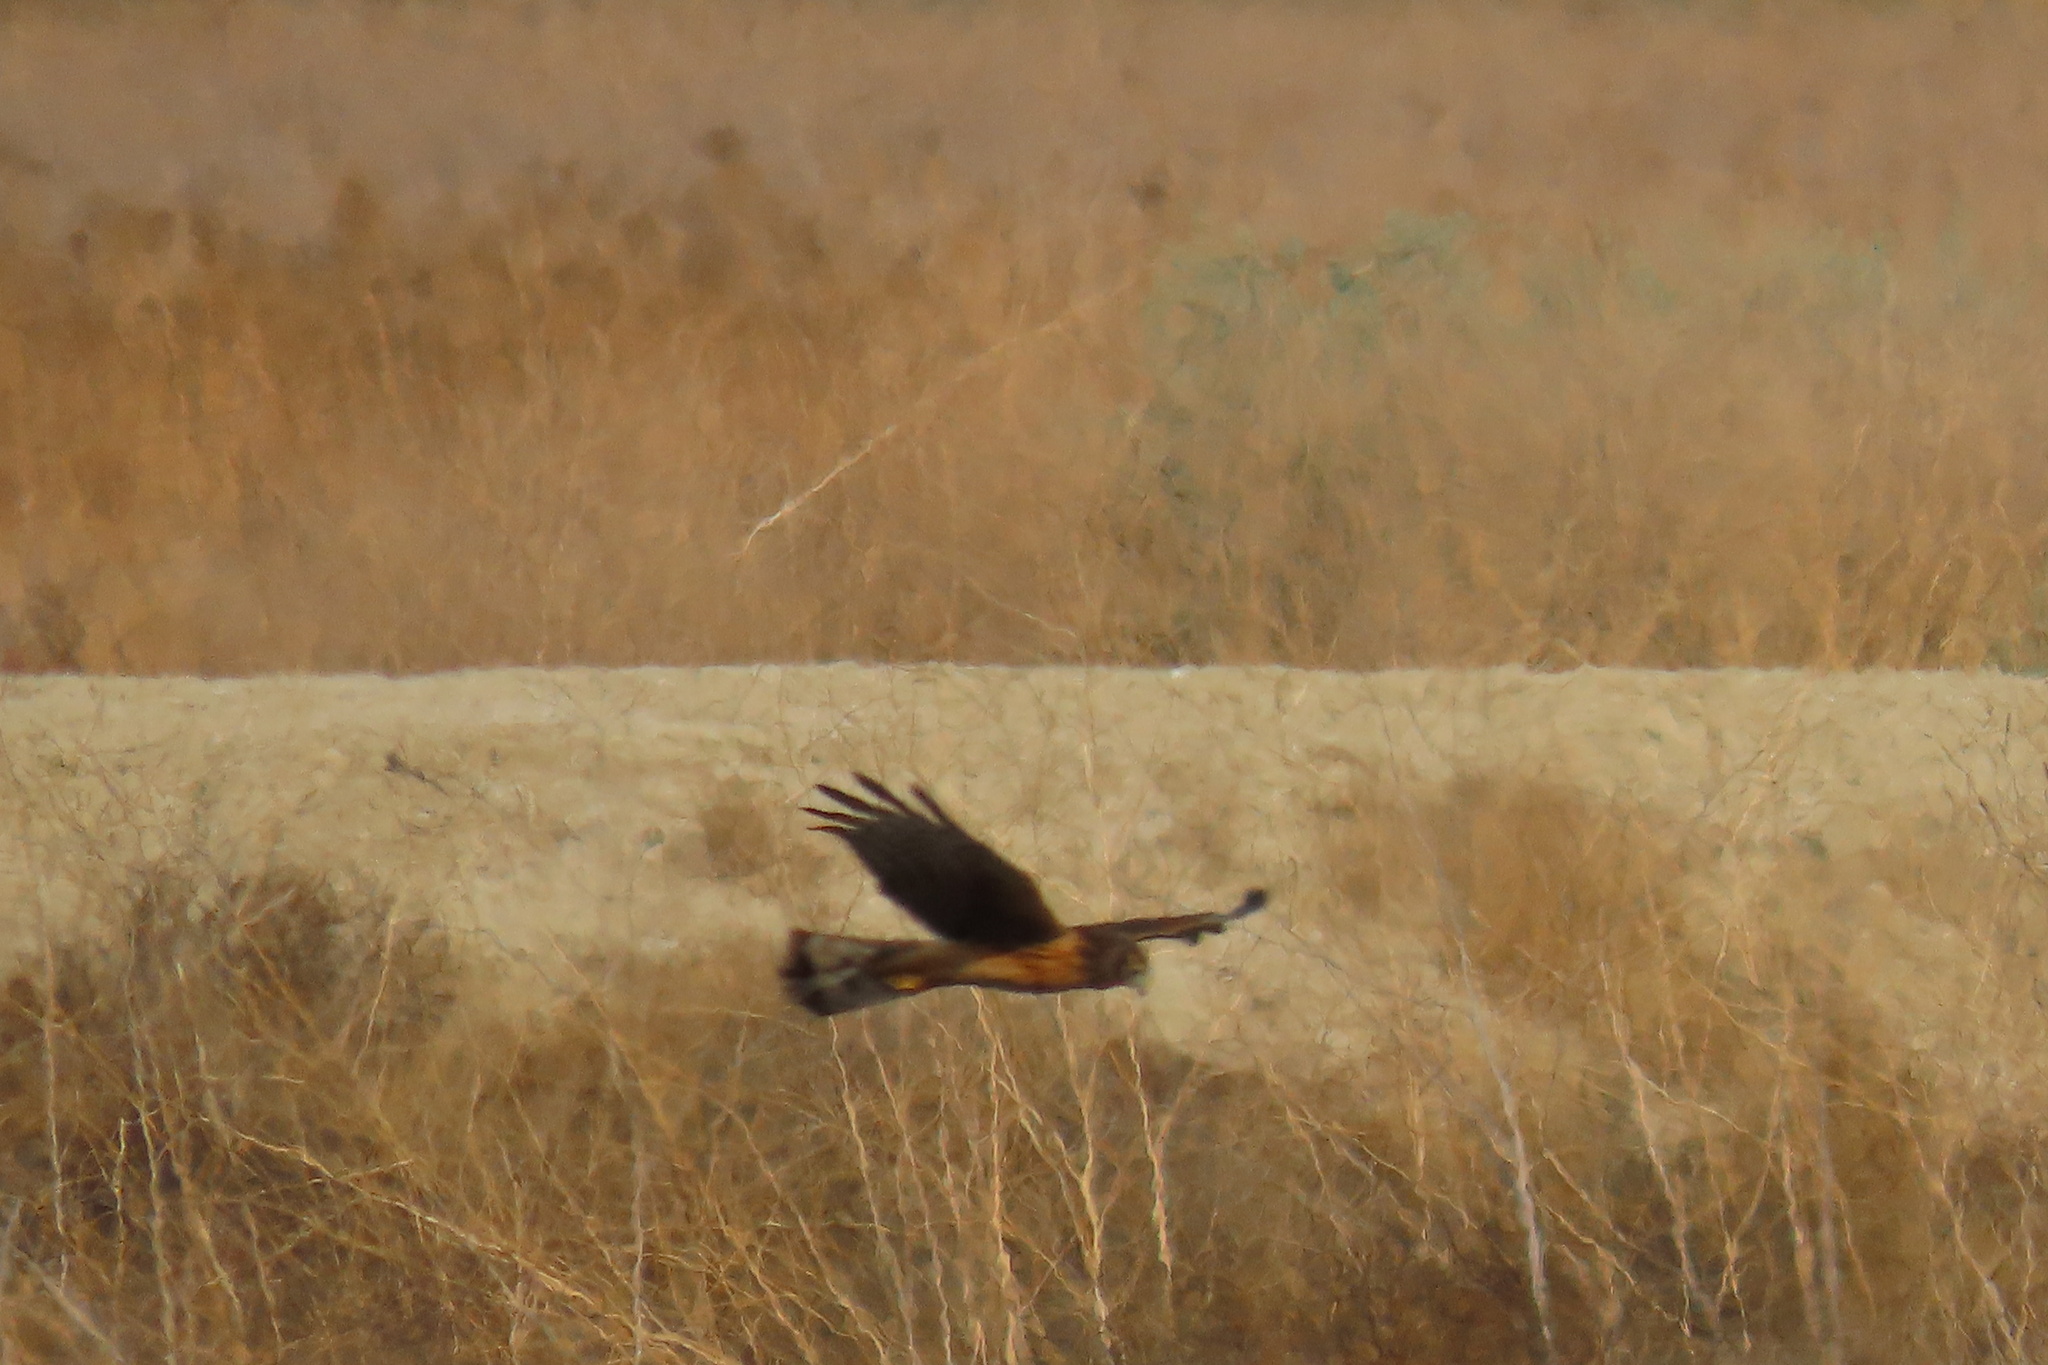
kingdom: Animalia
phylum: Chordata
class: Aves
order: Accipitriformes
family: Accipitridae
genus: Circus
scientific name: Circus cyaneus
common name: Hen harrier
